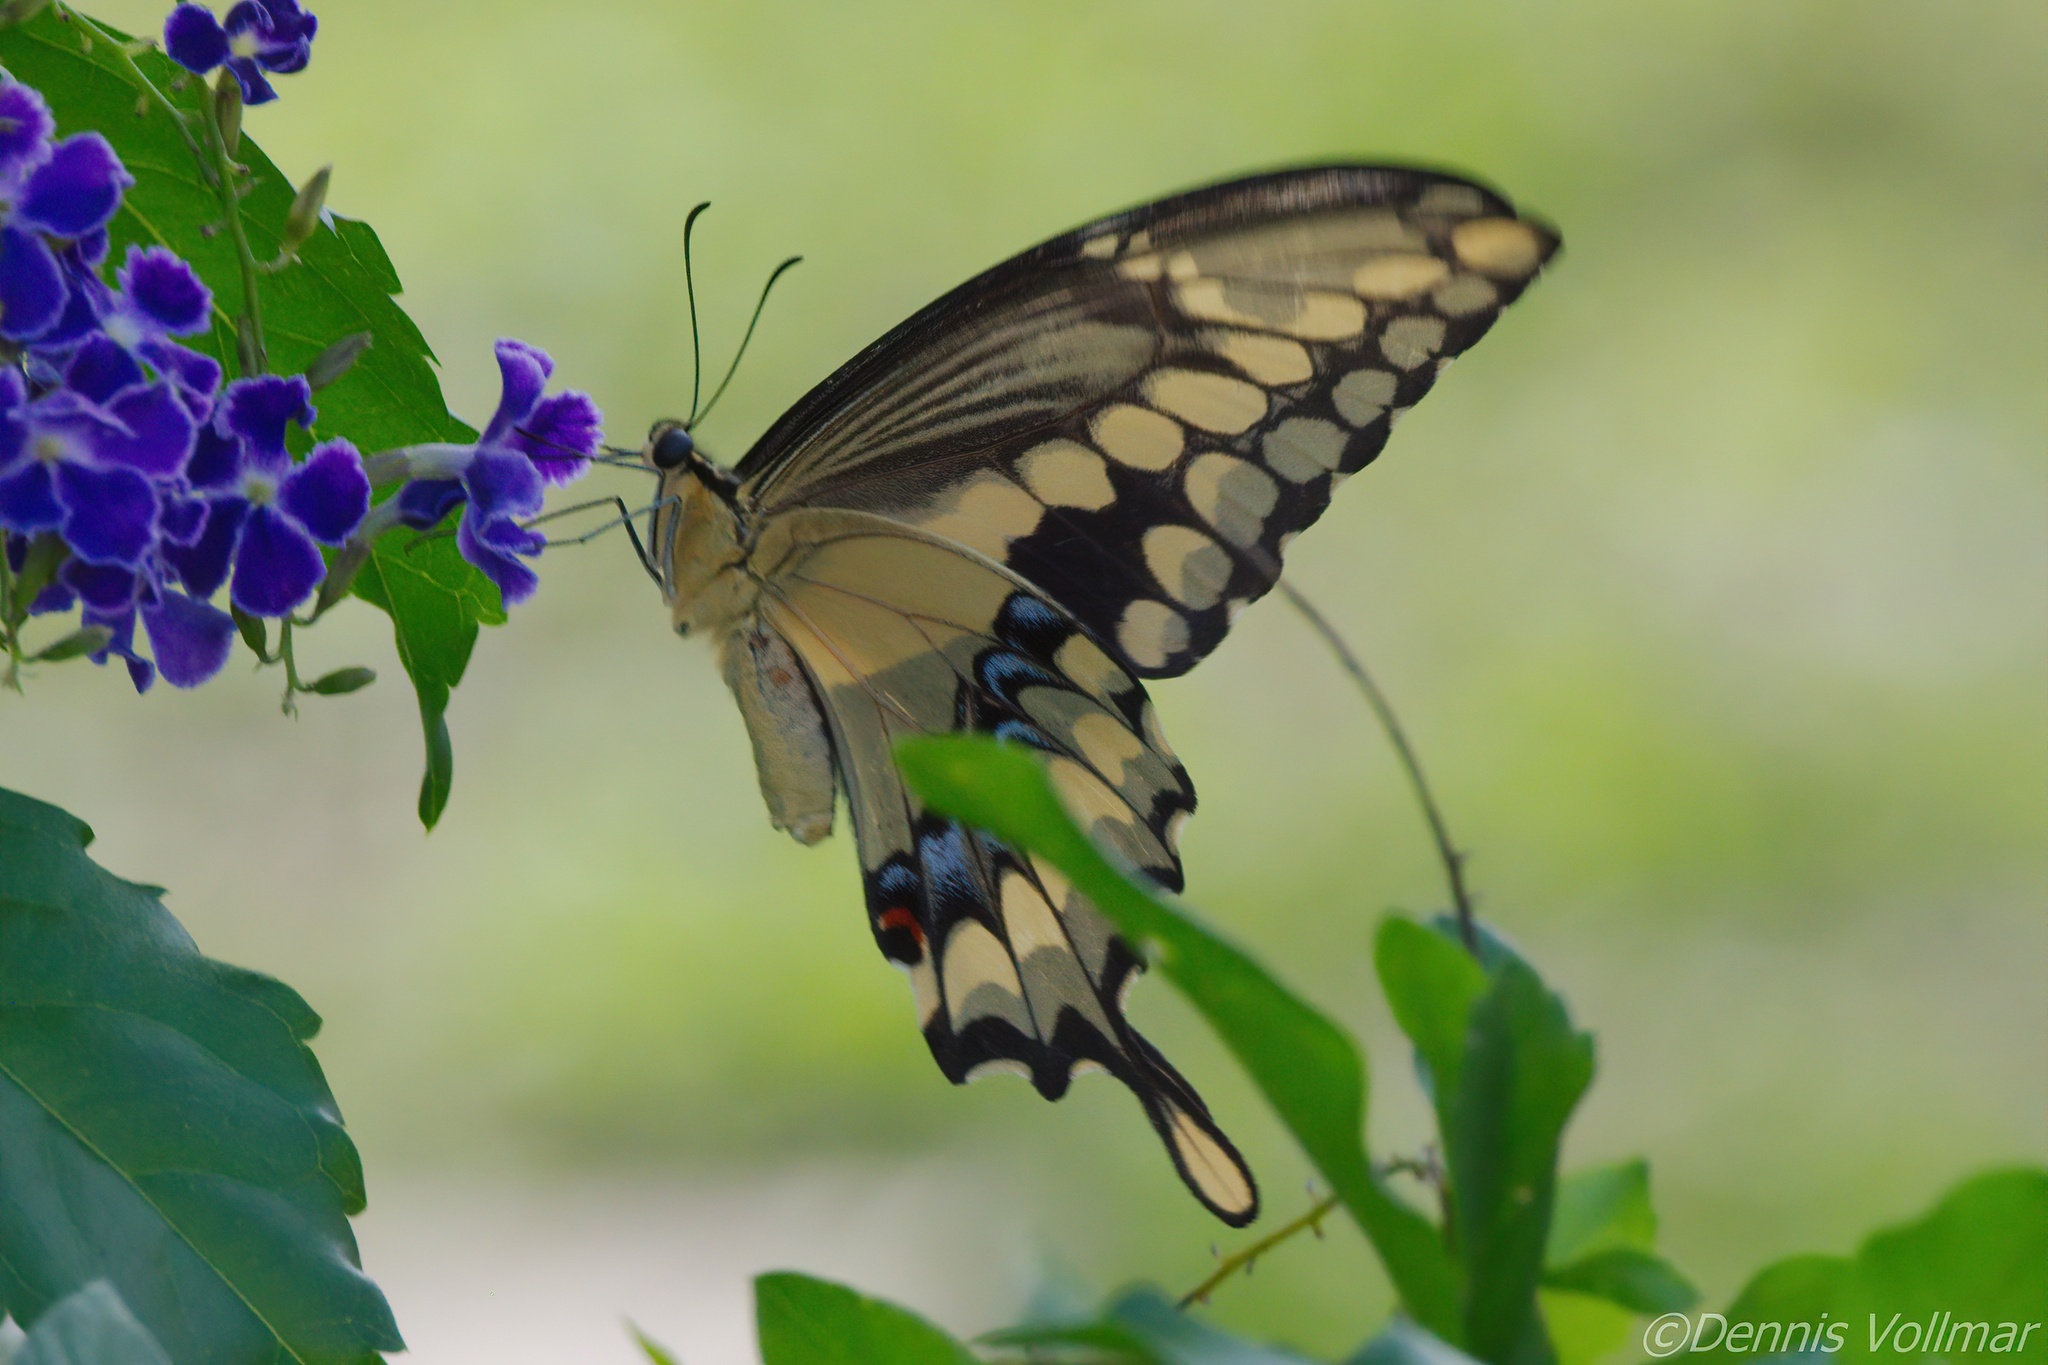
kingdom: Animalia
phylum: Arthropoda
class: Insecta
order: Lepidoptera
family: Papilionidae
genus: Papilio
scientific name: Papilio rumiko
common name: Western giant swallowtail
